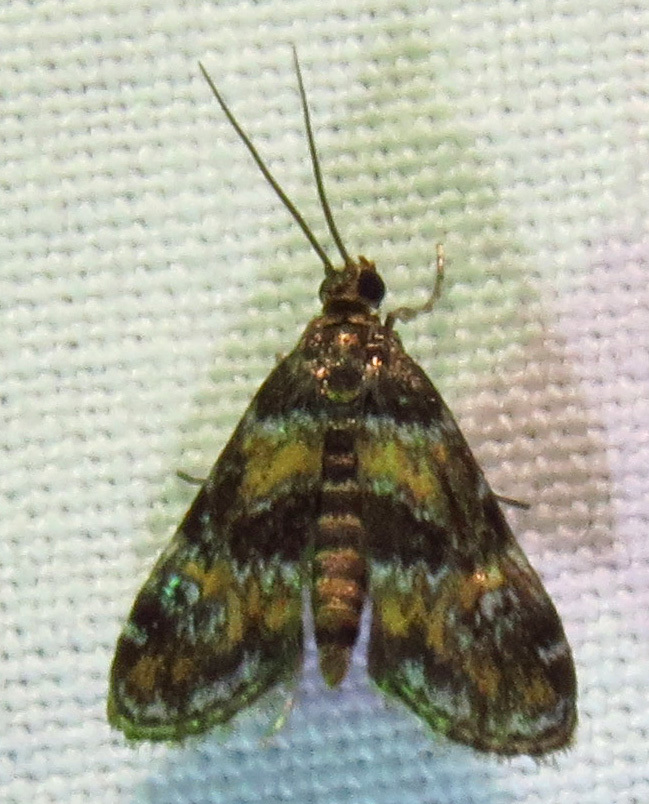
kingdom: Animalia
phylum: Arthropoda
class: Insecta
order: Lepidoptera
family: Crambidae
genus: Elophila
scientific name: Elophila obliteralis
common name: Waterlily leafcutter moth
